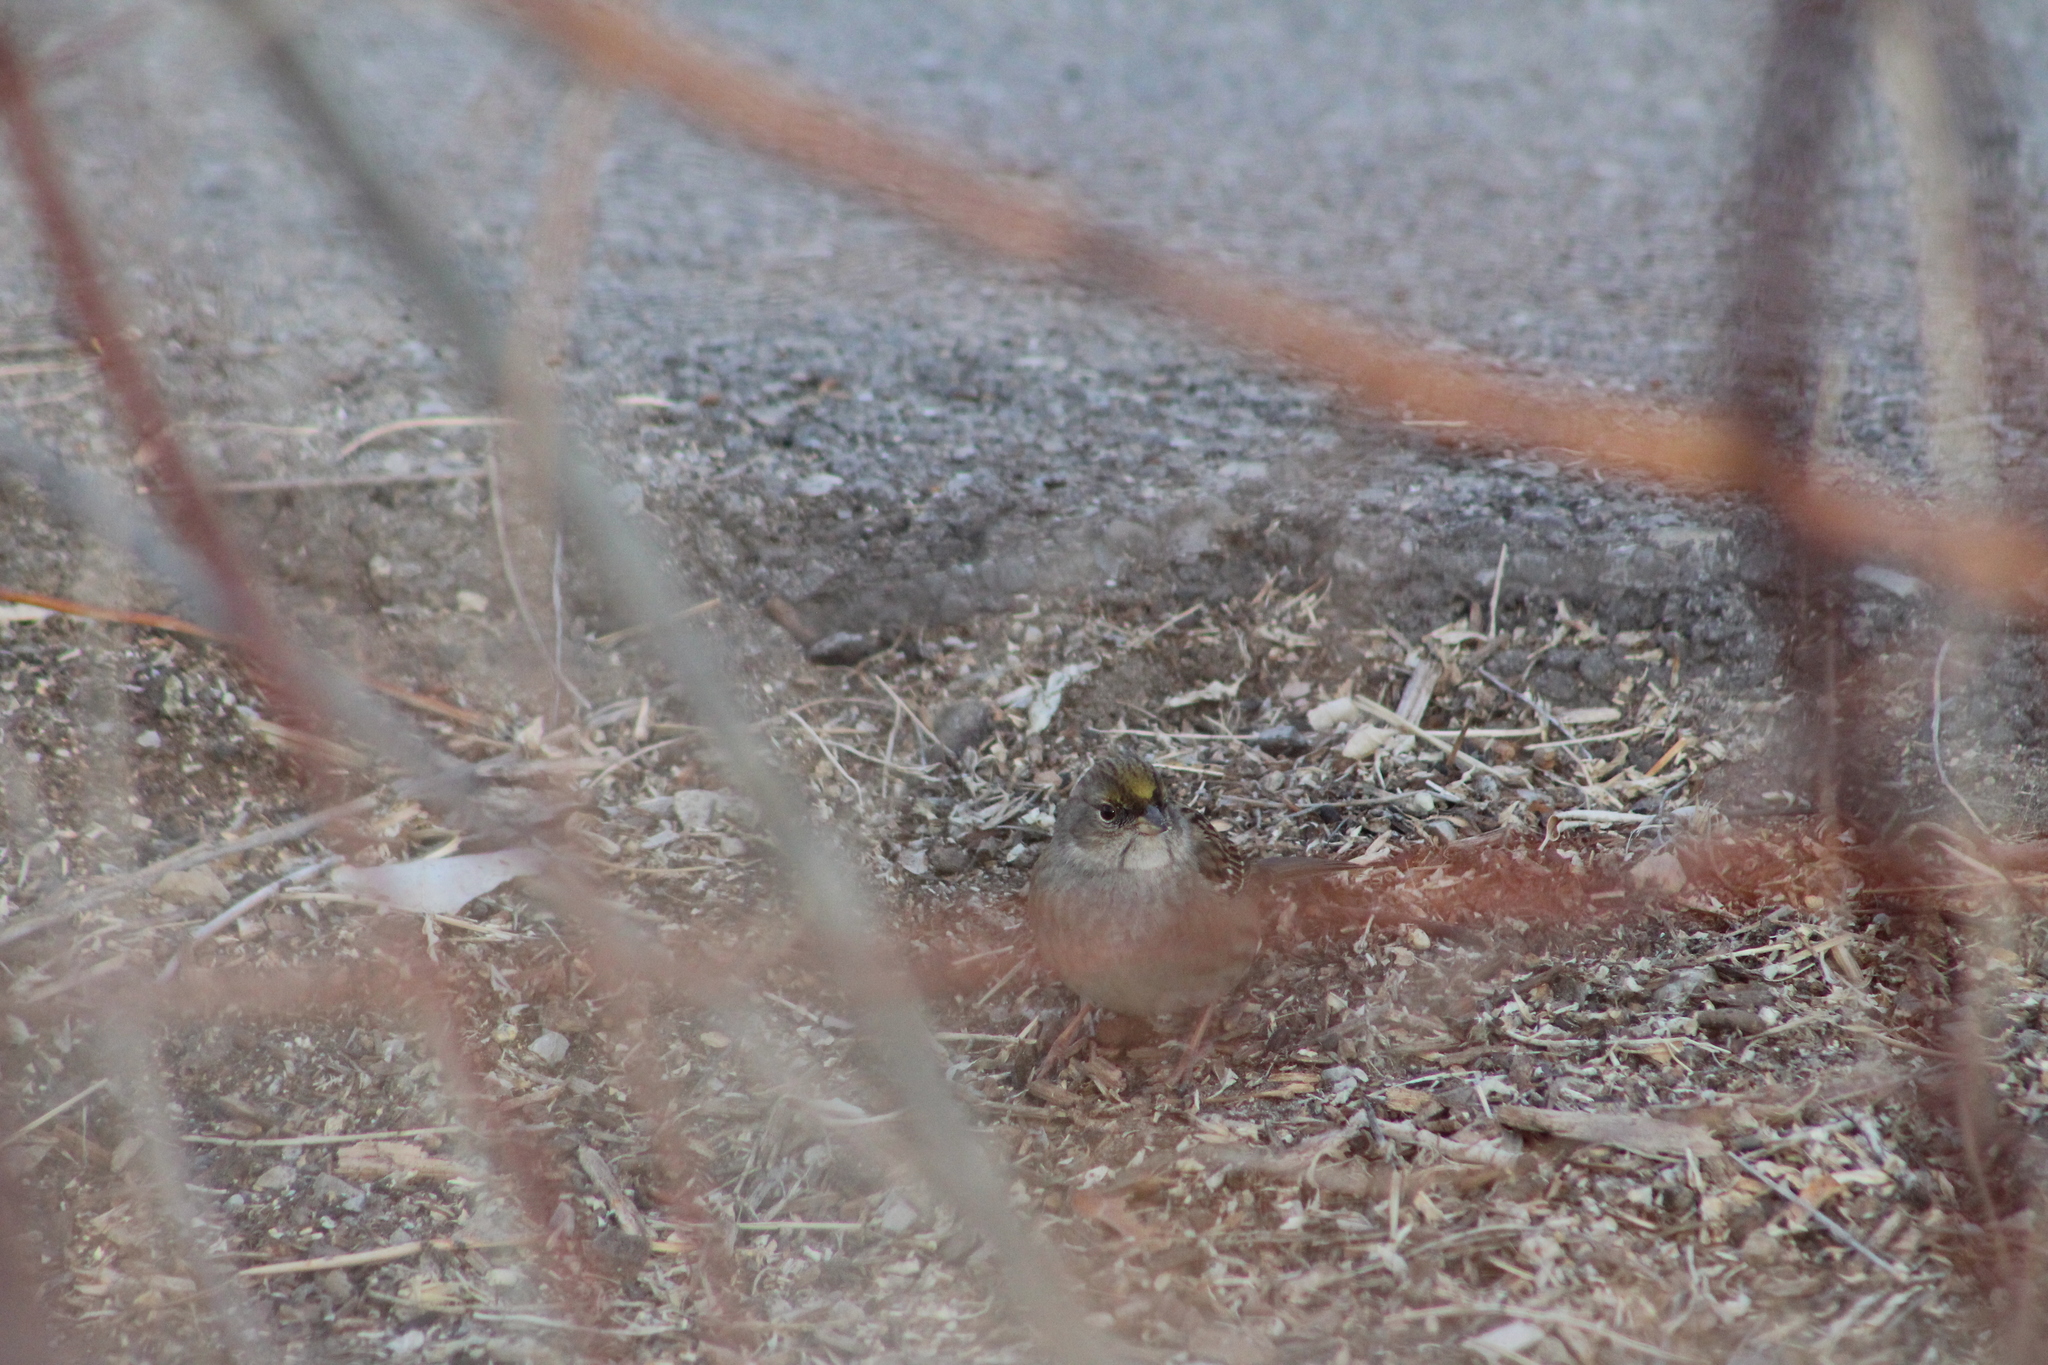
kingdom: Animalia
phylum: Chordata
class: Aves
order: Passeriformes
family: Passerellidae
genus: Zonotrichia
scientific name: Zonotrichia atricapilla
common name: Golden-crowned sparrow
